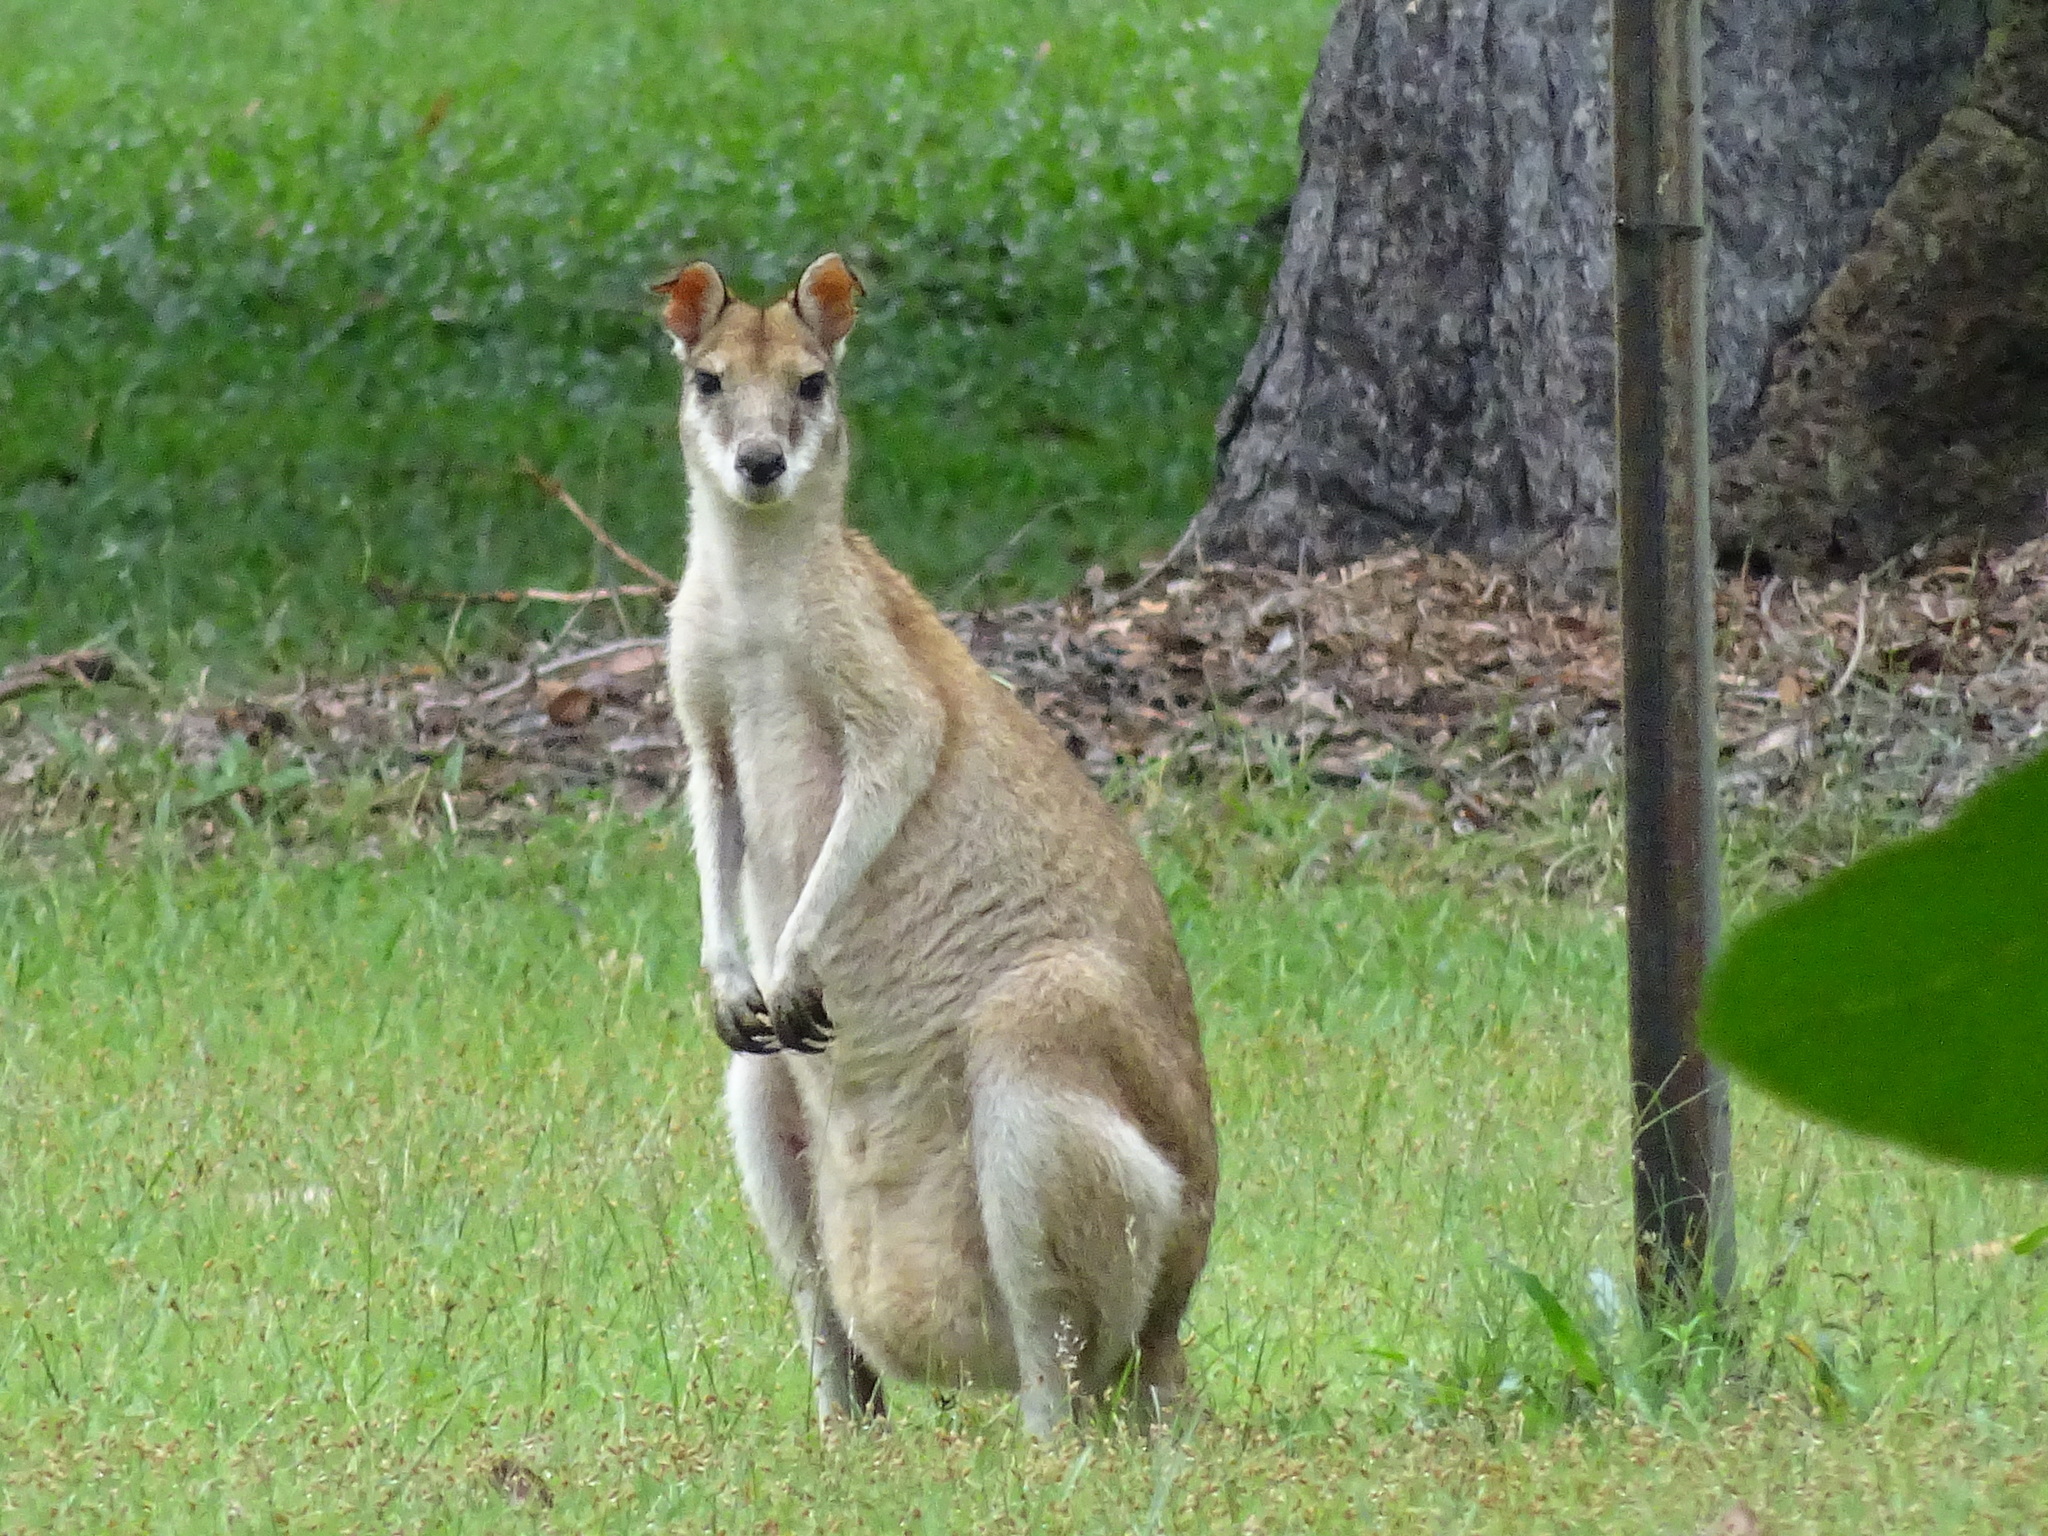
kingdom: Animalia
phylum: Chordata
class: Mammalia
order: Diprotodontia
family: Macropodidae
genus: Macropus
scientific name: Macropus agilis
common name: Agile wallaby
